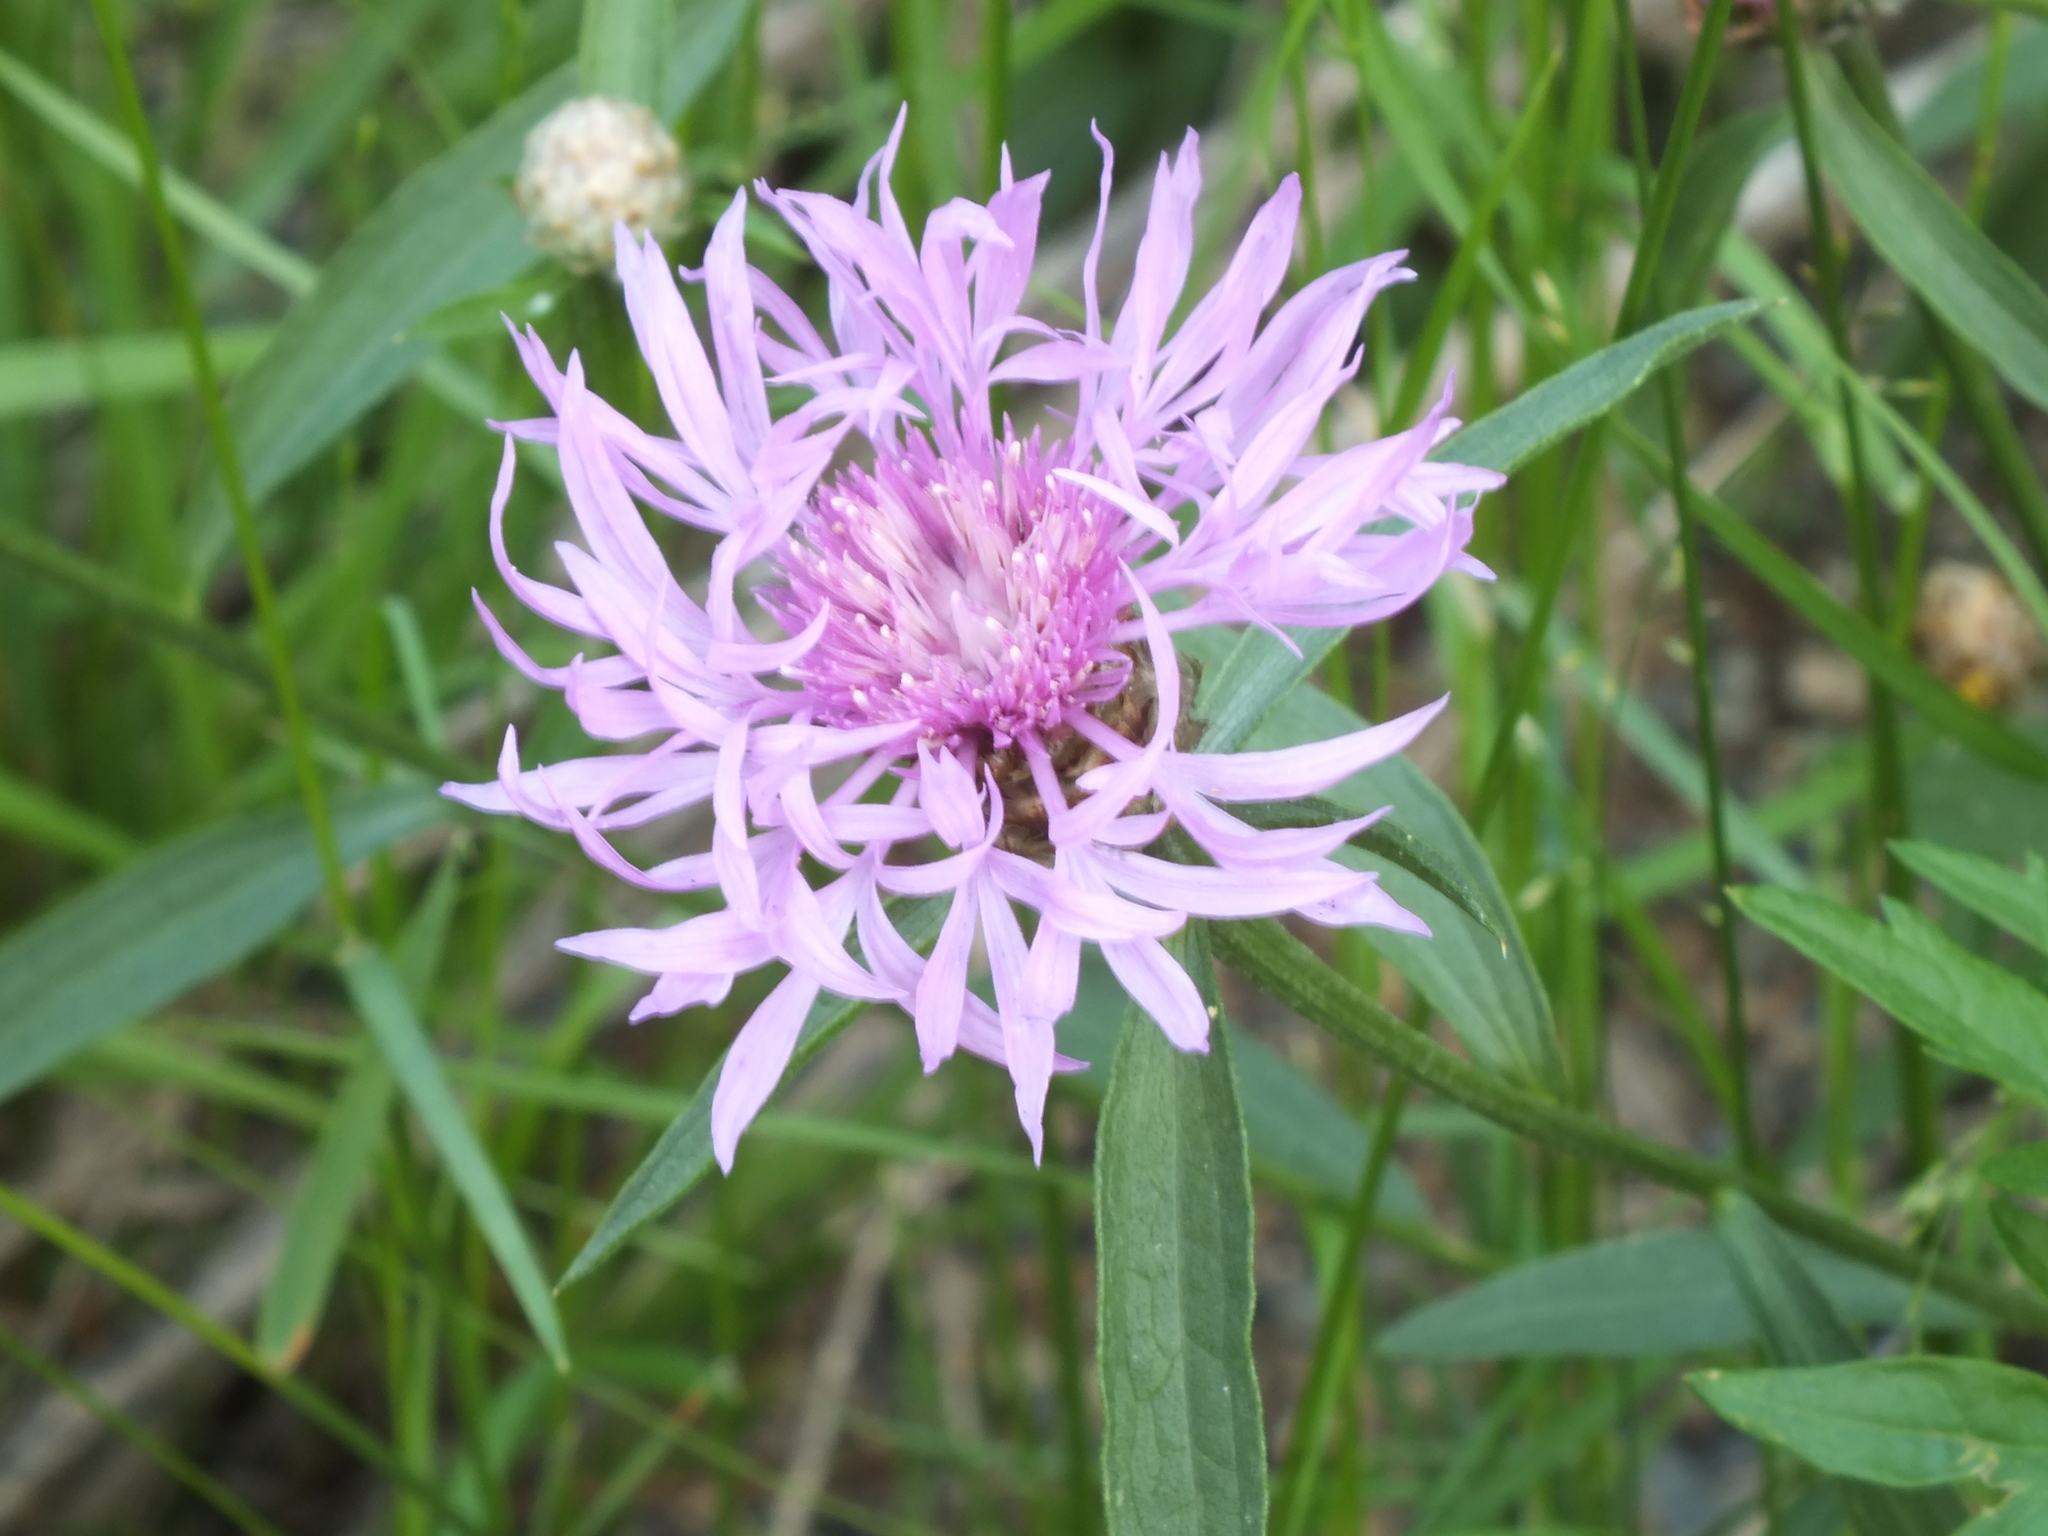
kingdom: Plantae
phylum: Tracheophyta
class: Magnoliopsida
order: Asterales
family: Asteraceae
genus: Centaurea
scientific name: Centaurea jacea
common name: Brown knapweed
